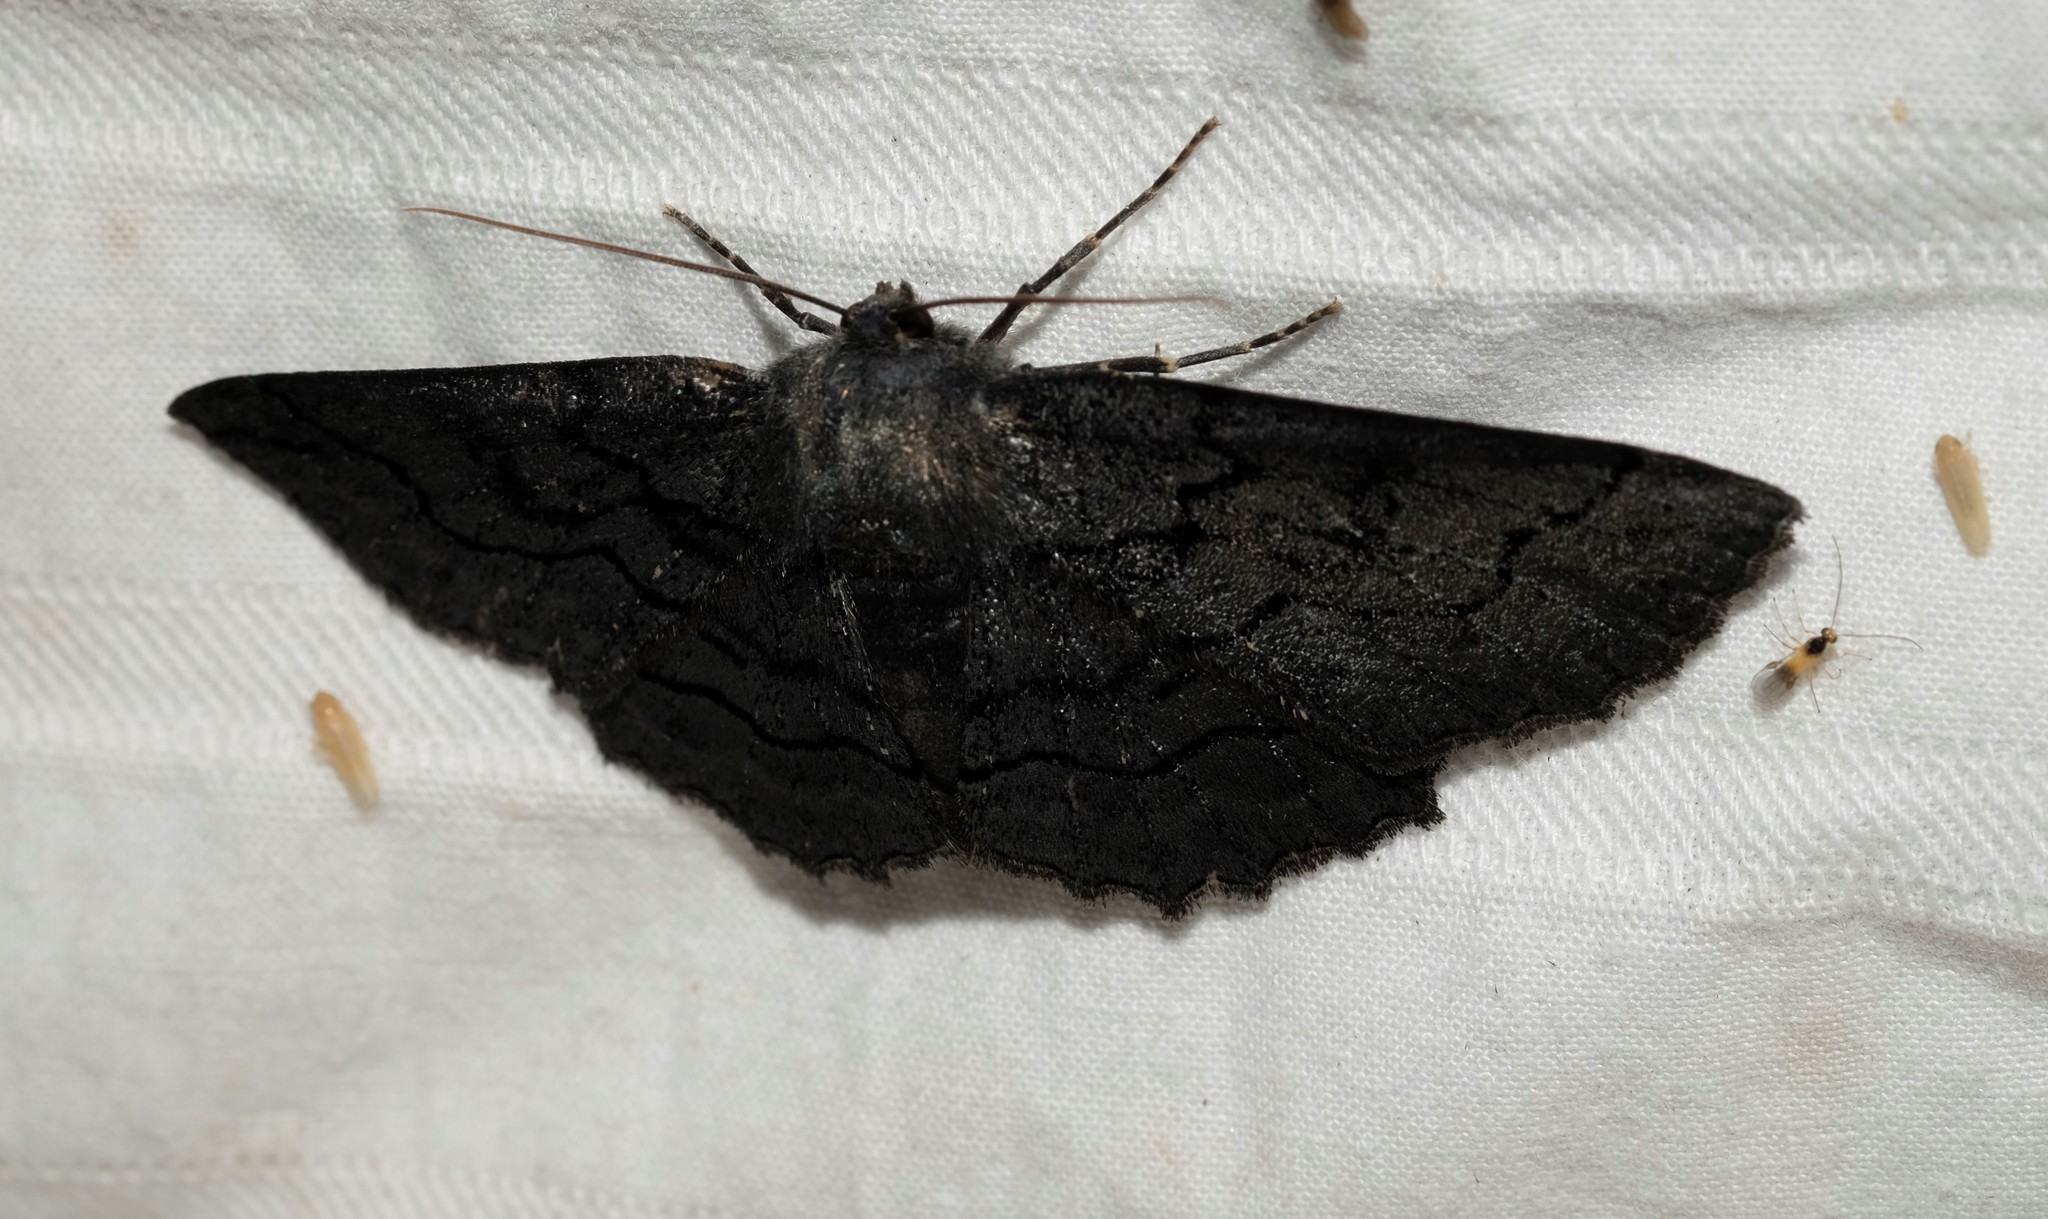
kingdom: Animalia
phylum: Arthropoda
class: Insecta
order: Lepidoptera
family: Geometridae
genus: Melanodes
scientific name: Melanodes anthracitaria
